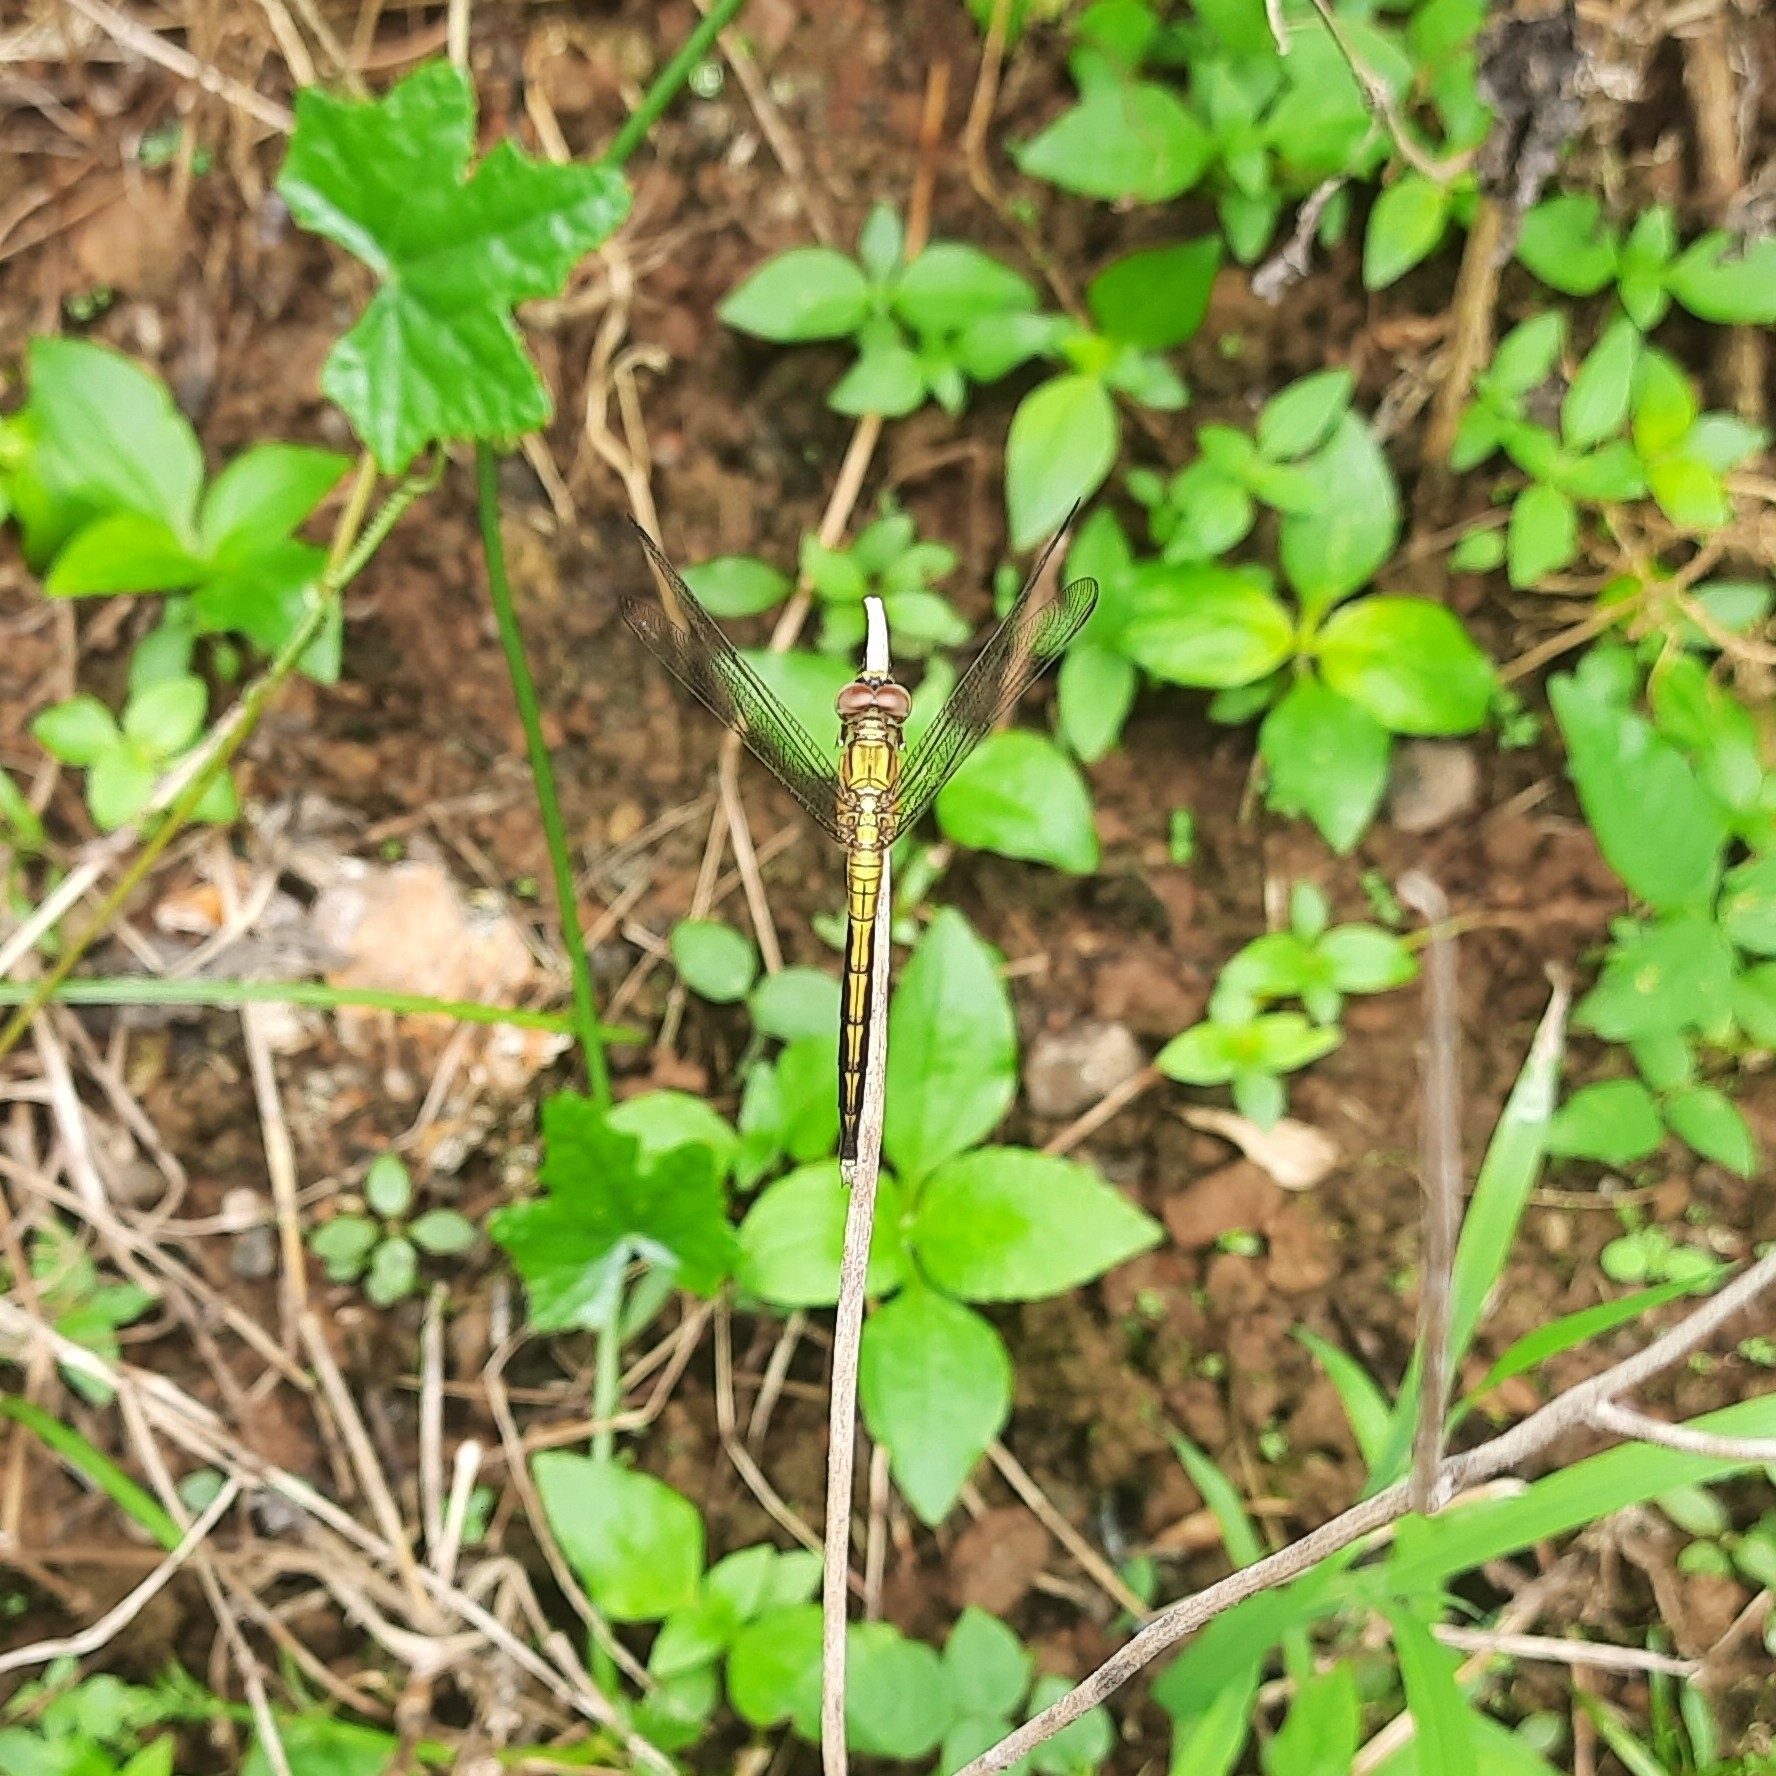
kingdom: Animalia
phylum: Arthropoda
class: Insecta
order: Odonata
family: Libellulidae
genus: Orthetrum
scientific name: Orthetrum luzonicum
